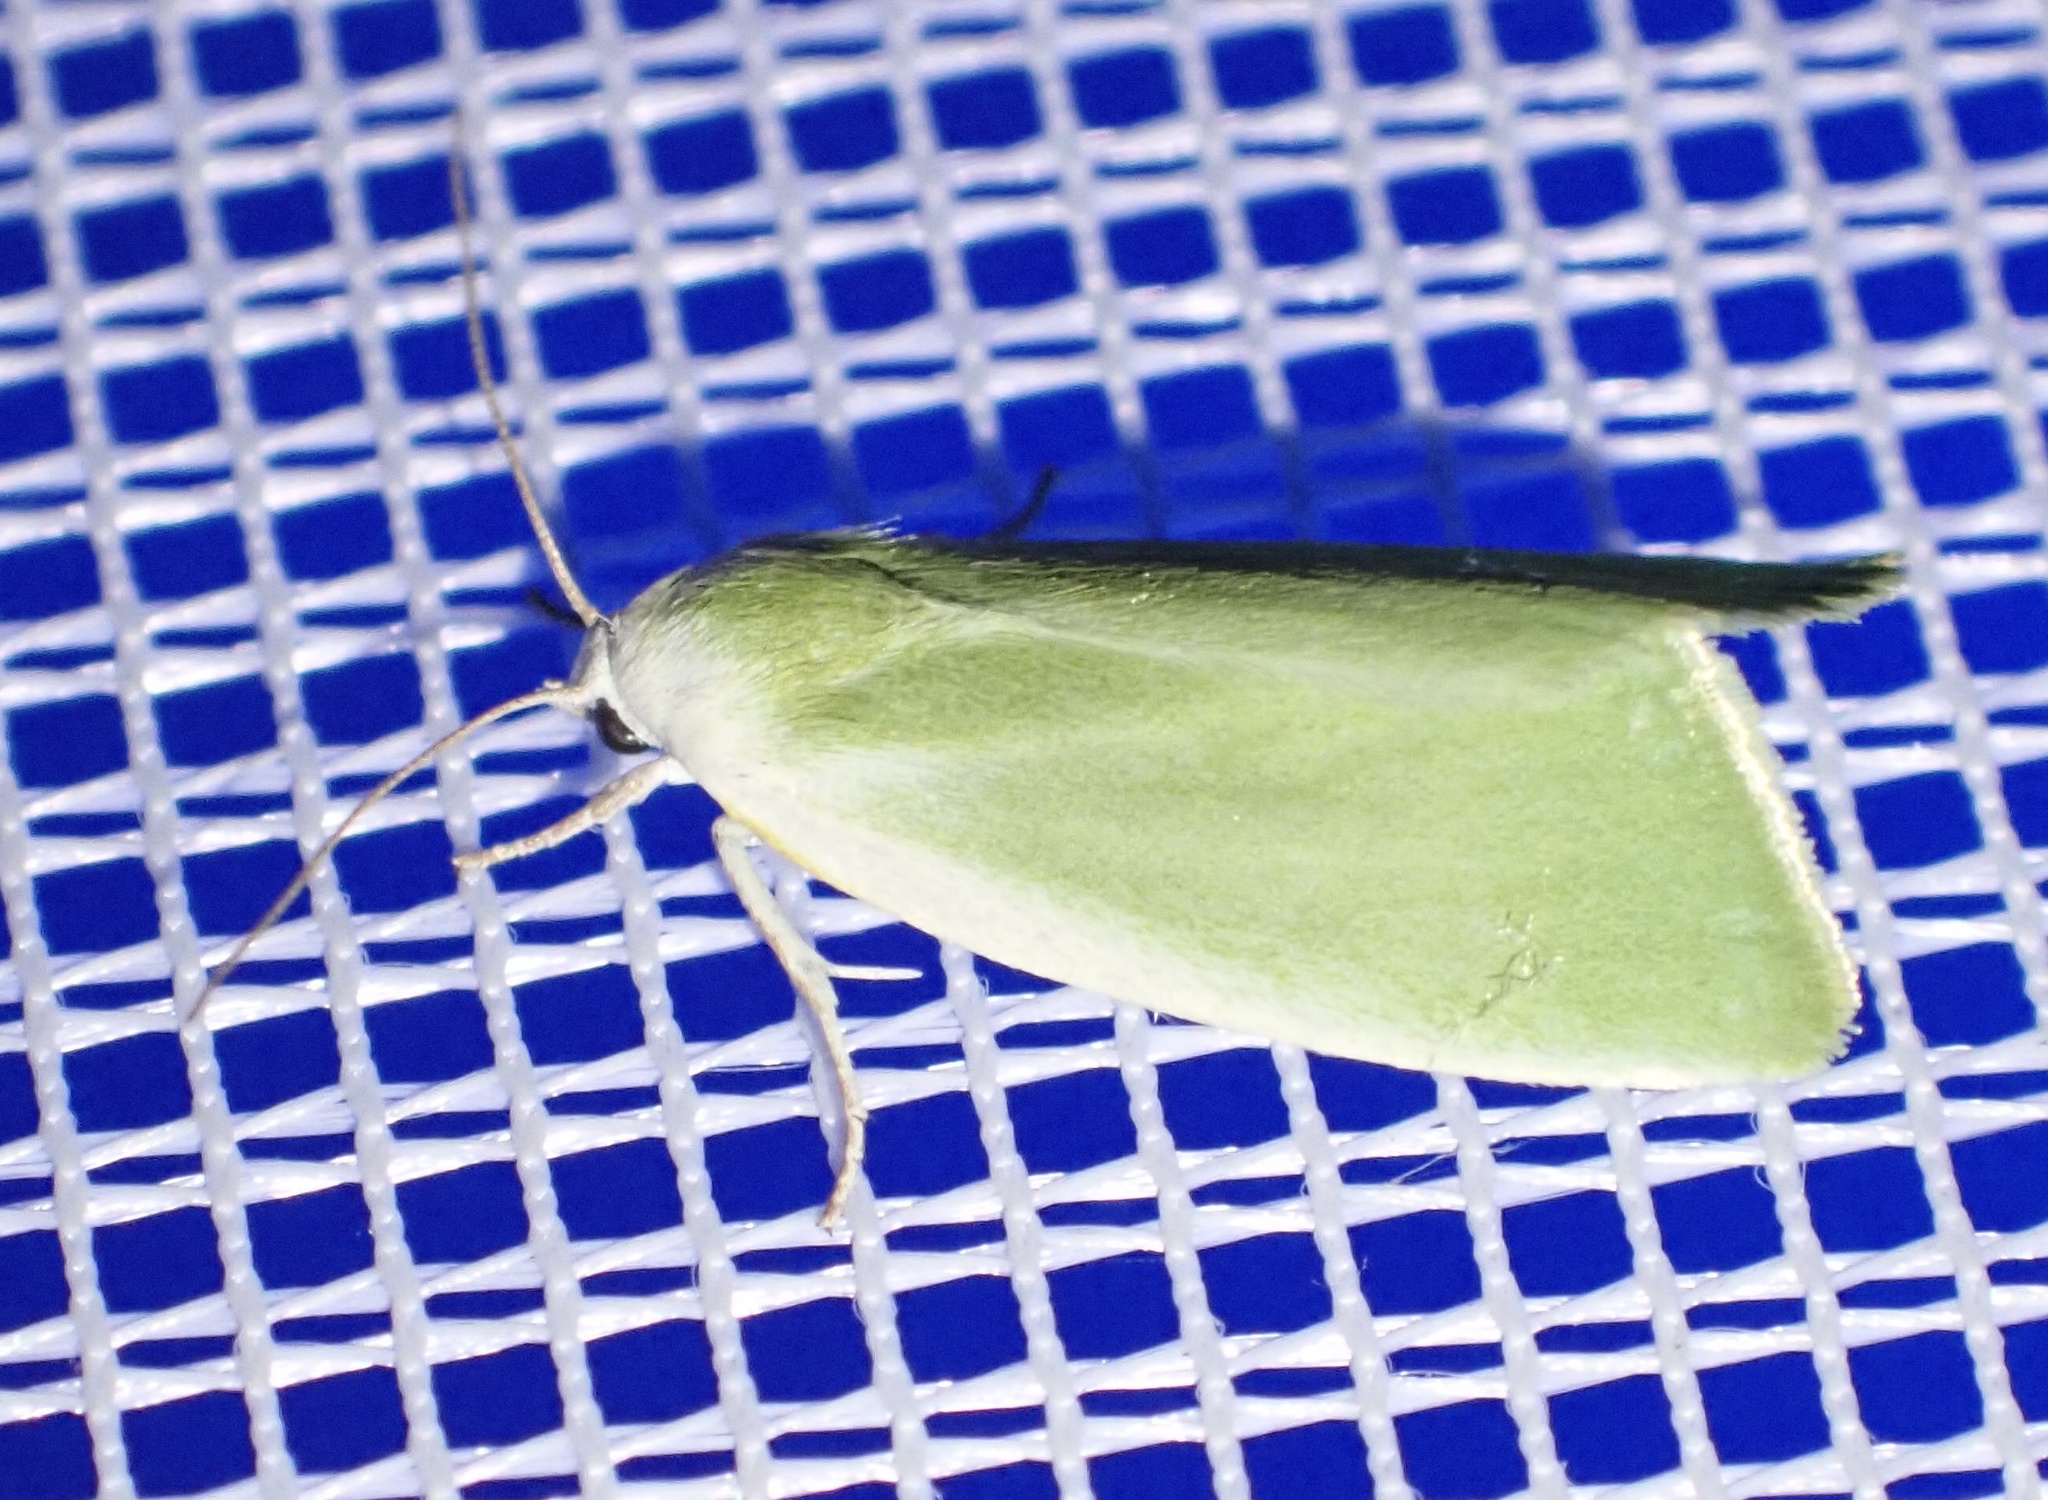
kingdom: Animalia
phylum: Arthropoda
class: Insecta
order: Lepidoptera
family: Nolidae
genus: Earias
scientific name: Earias clorana
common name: Cream-bordered green pea
